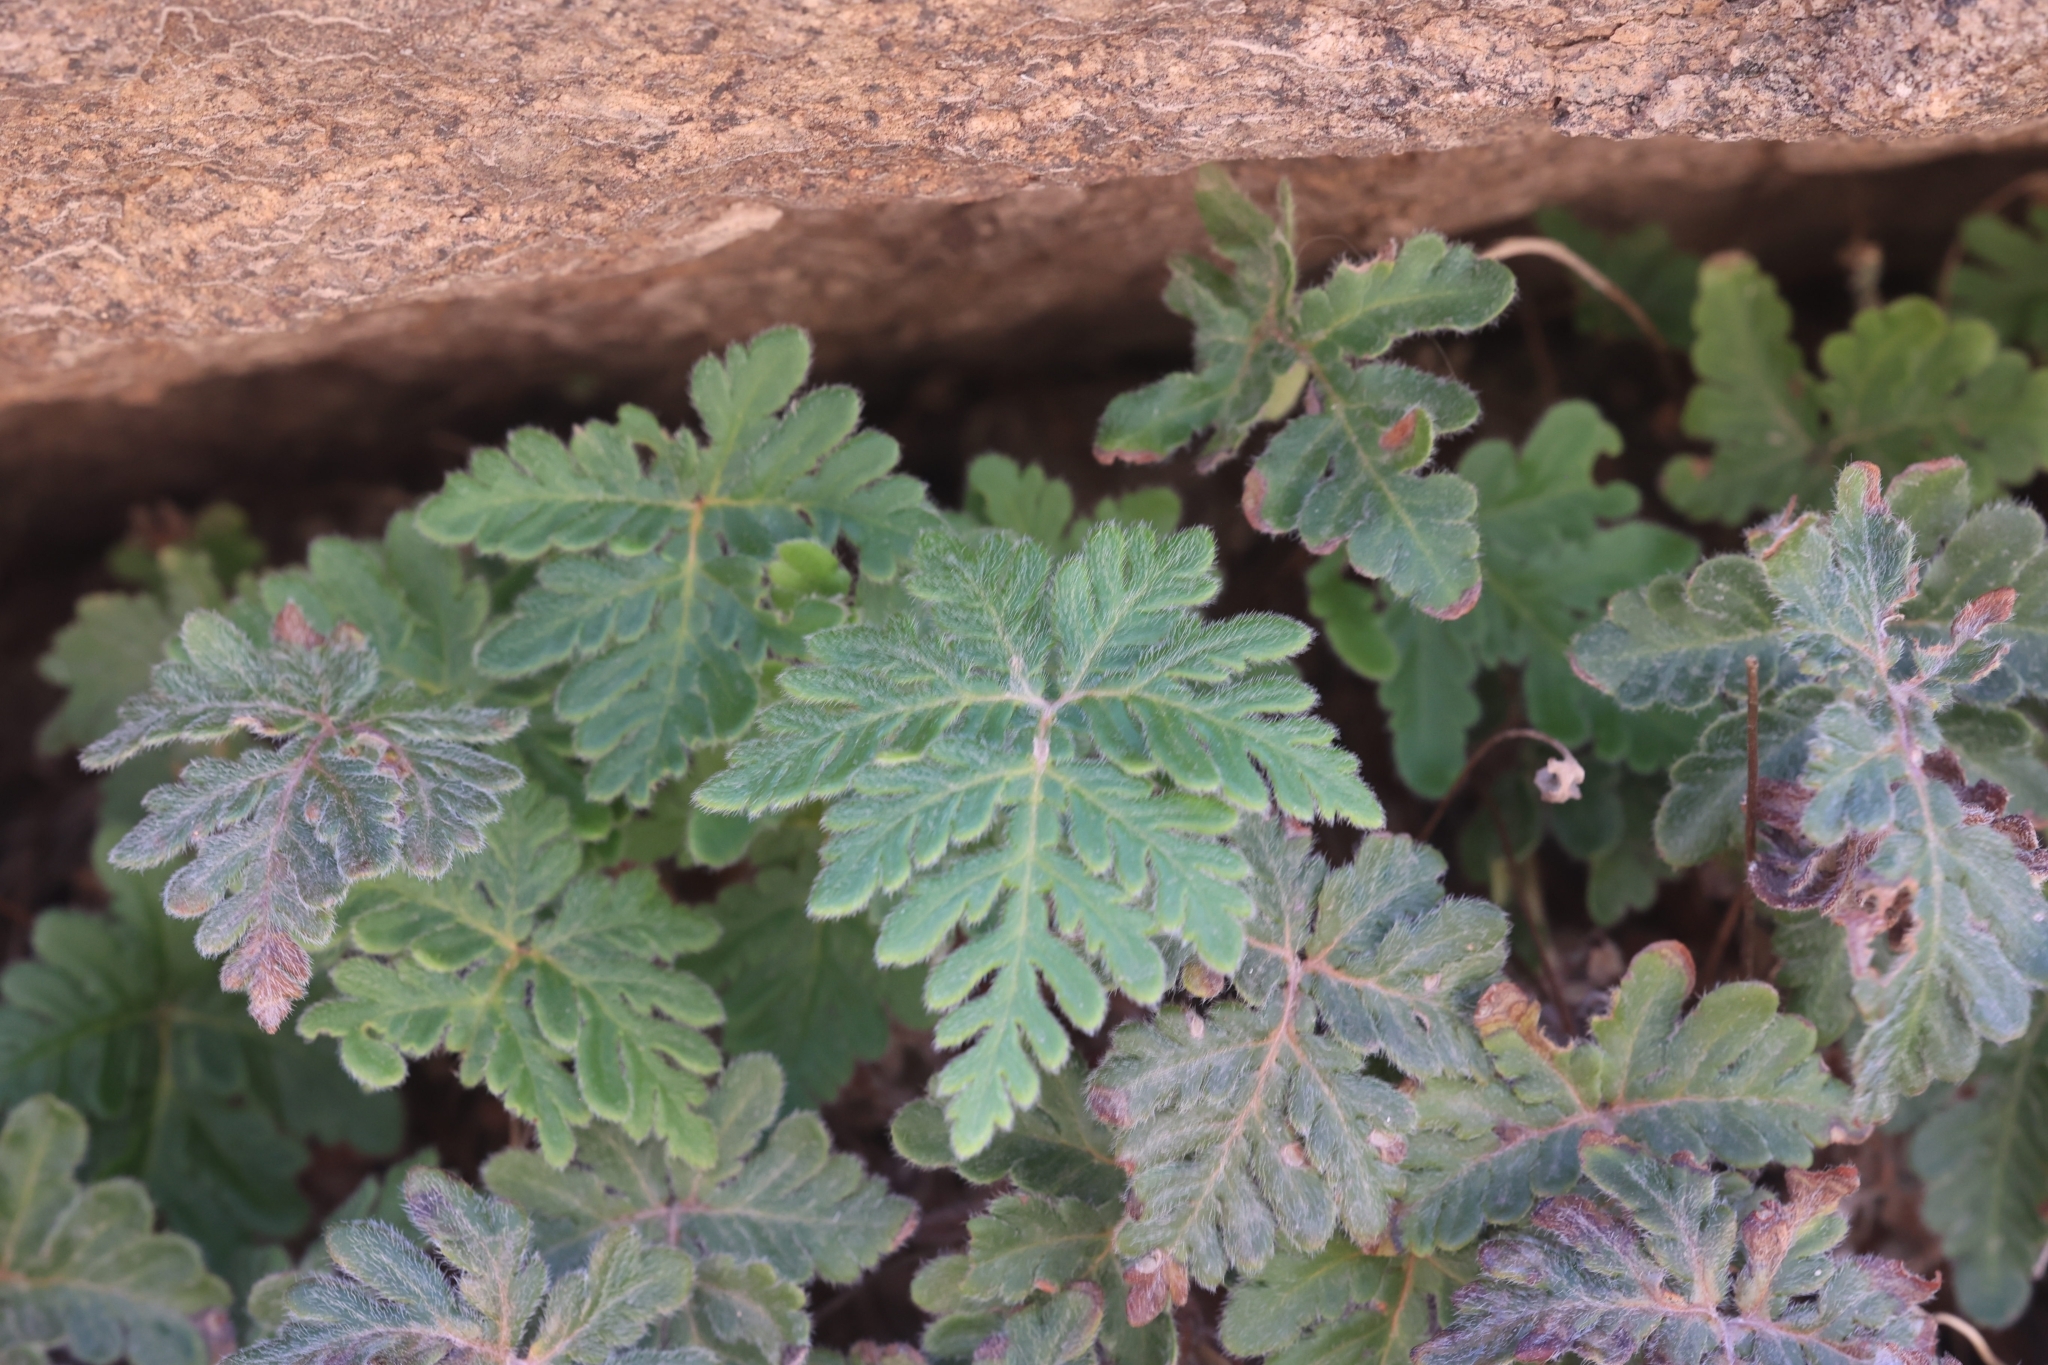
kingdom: Plantae
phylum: Tracheophyta
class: Polypodiopsida
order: Polypodiales
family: Pteridaceae
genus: Bommeria
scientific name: Bommeria hispida
